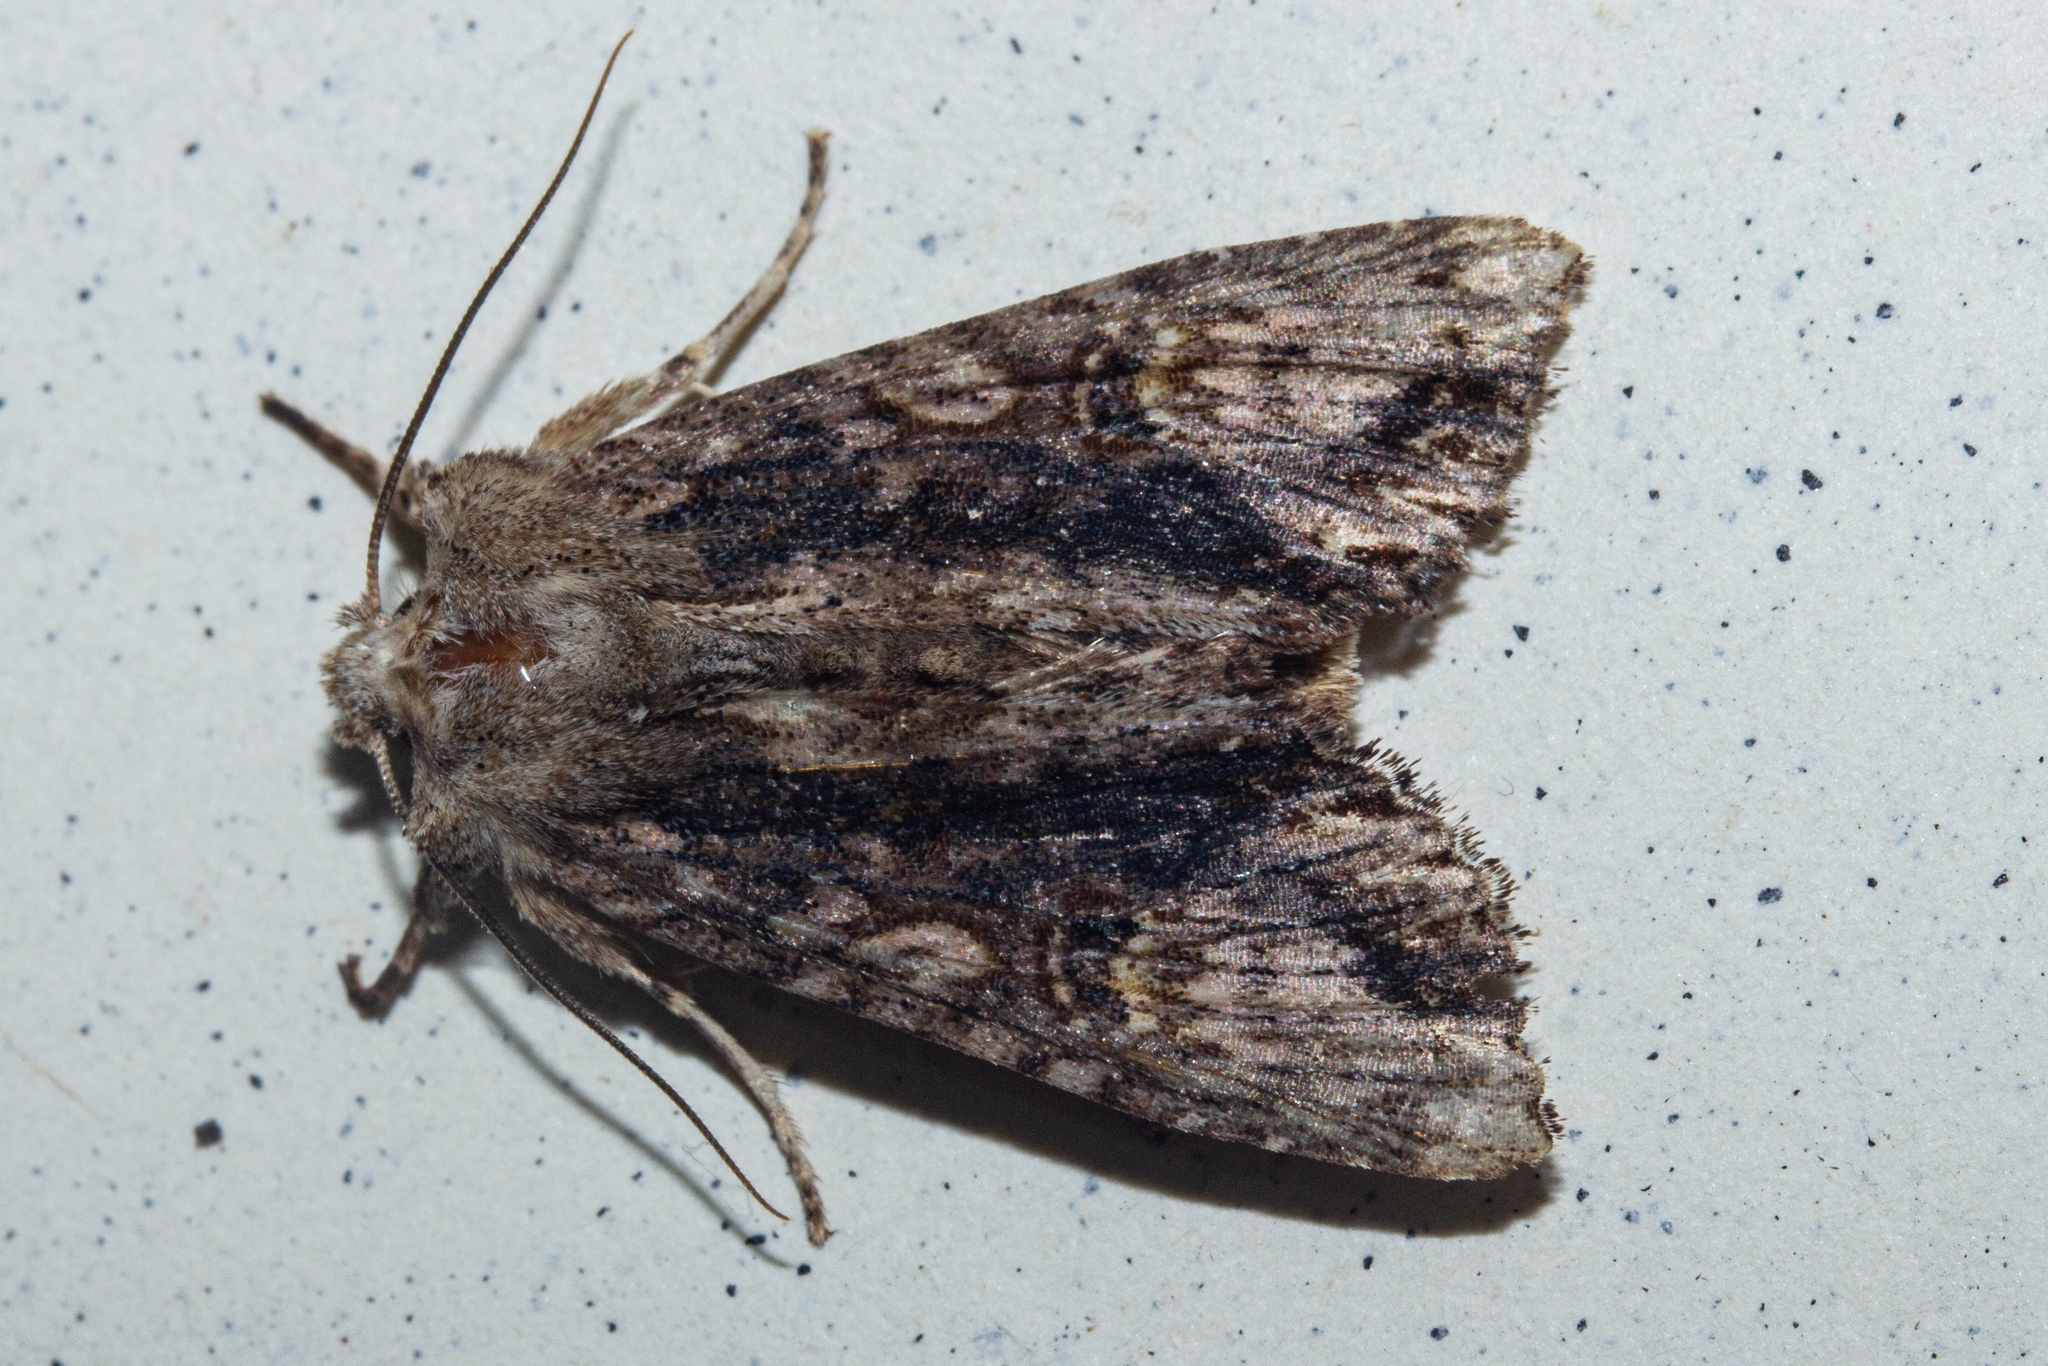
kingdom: Animalia
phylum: Arthropoda
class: Insecta
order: Lepidoptera
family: Noctuidae
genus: Meterana
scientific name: Meterana pascoei
